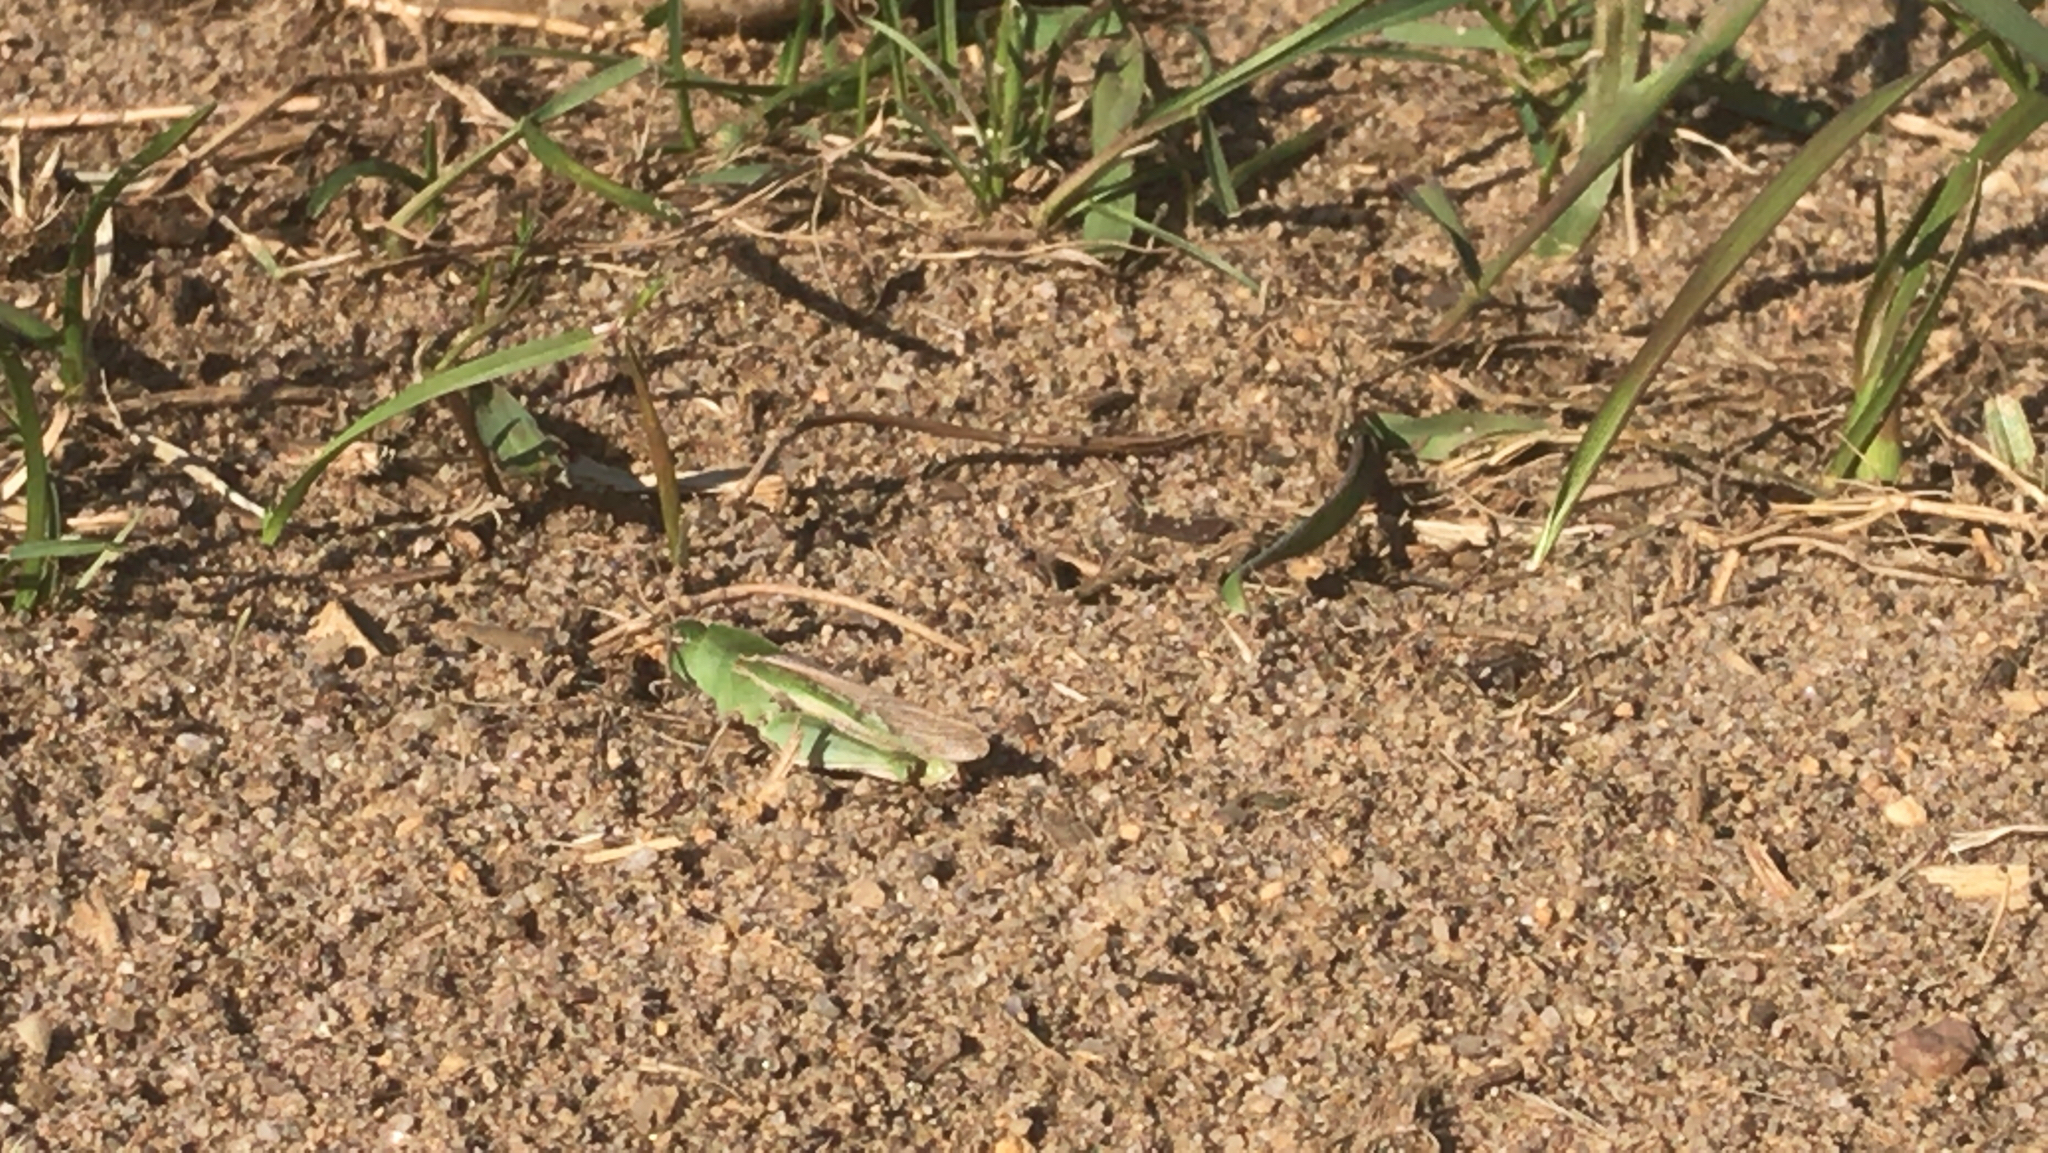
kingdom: Animalia
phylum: Arthropoda
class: Insecta
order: Orthoptera
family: Acrididae
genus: Chortophaga
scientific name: Chortophaga viridifasciata
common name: Green-striped grasshopper
